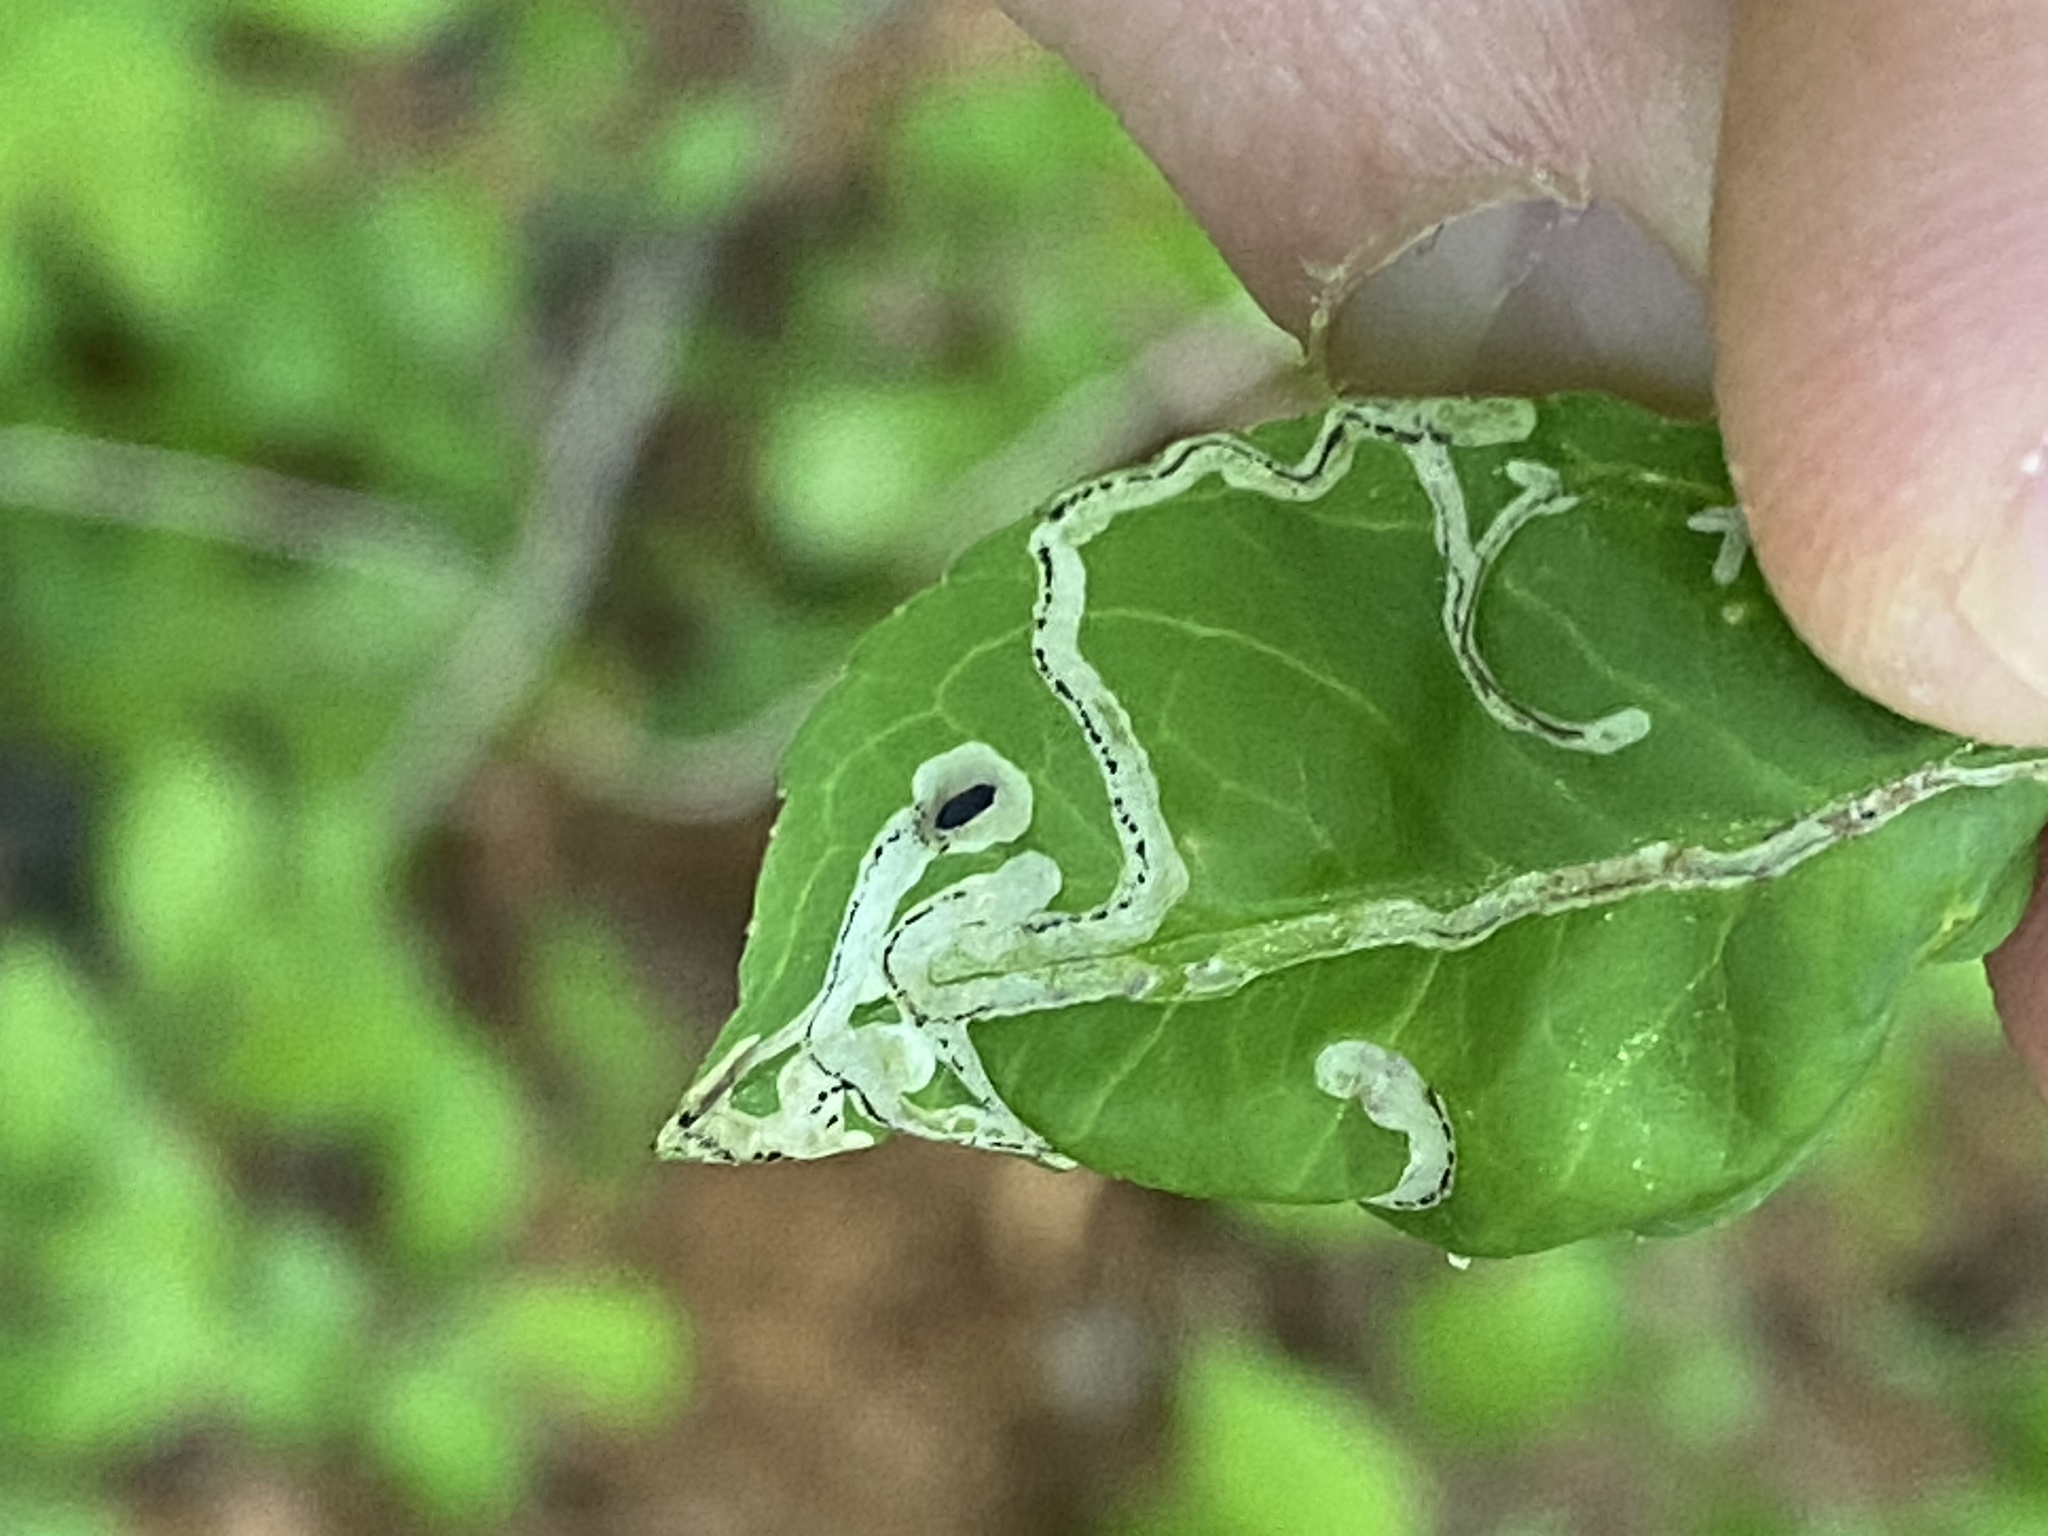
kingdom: Animalia
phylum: Arthropoda
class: Insecta
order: Diptera
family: Agromyzidae
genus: Phytomyza
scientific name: Phytomyza ditmani
